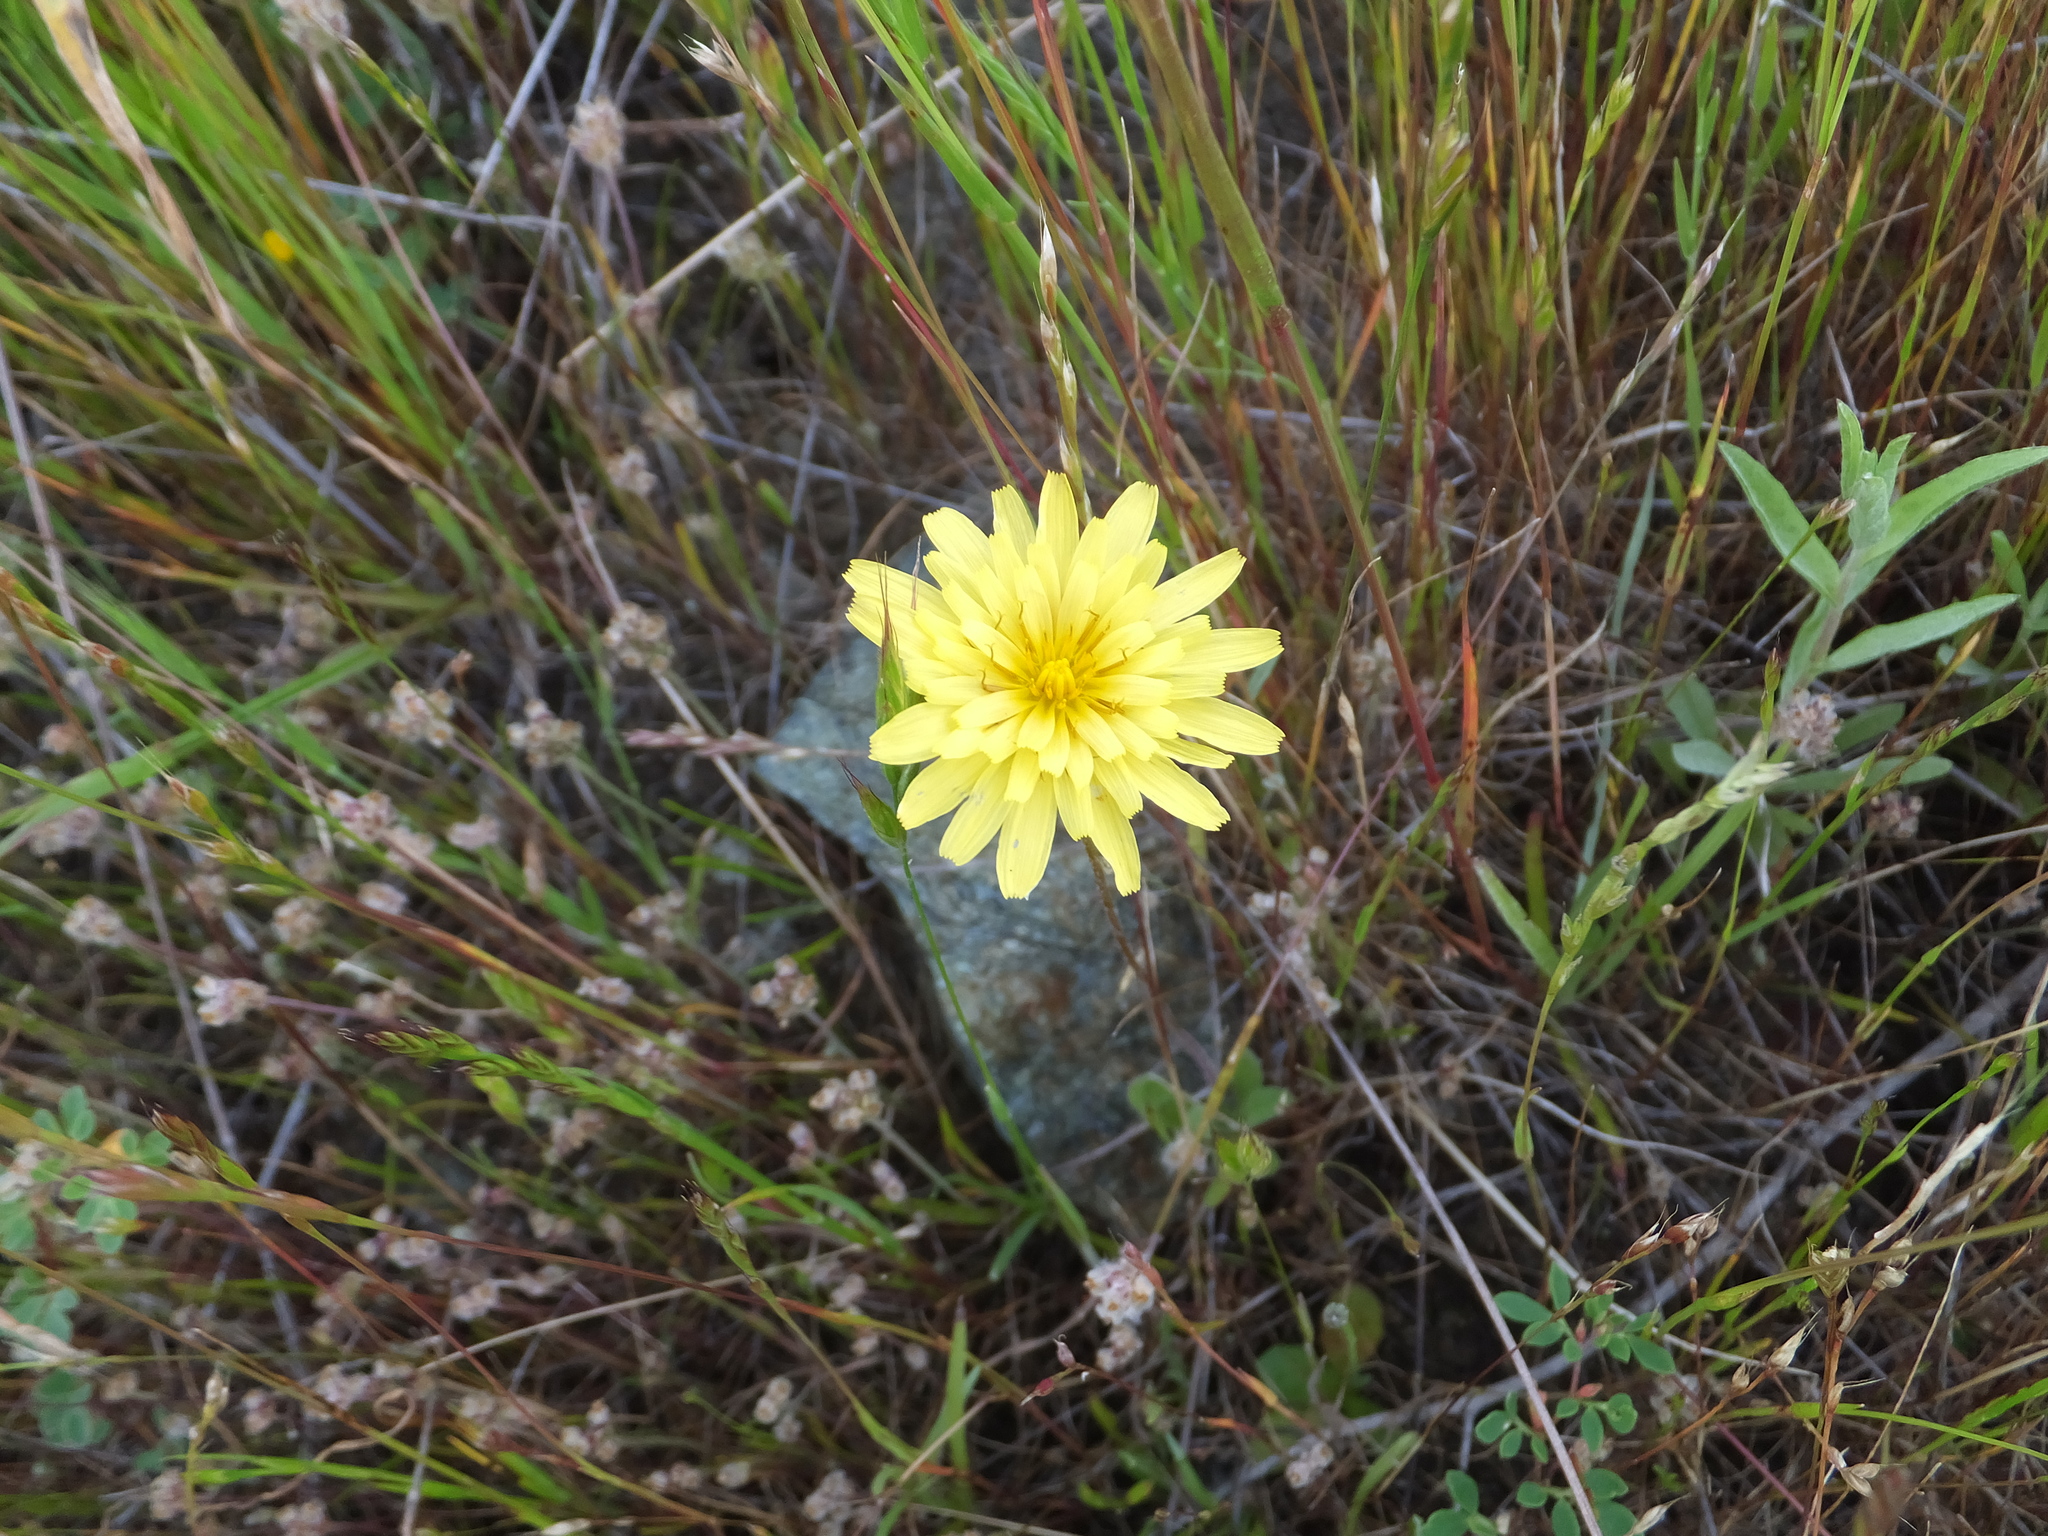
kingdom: Plantae
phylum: Tracheophyta
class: Magnoliopsida
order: Asterales
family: Asteraceae
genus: Agoseris
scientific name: Agoseris heterophylla
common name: Annual agoseris
